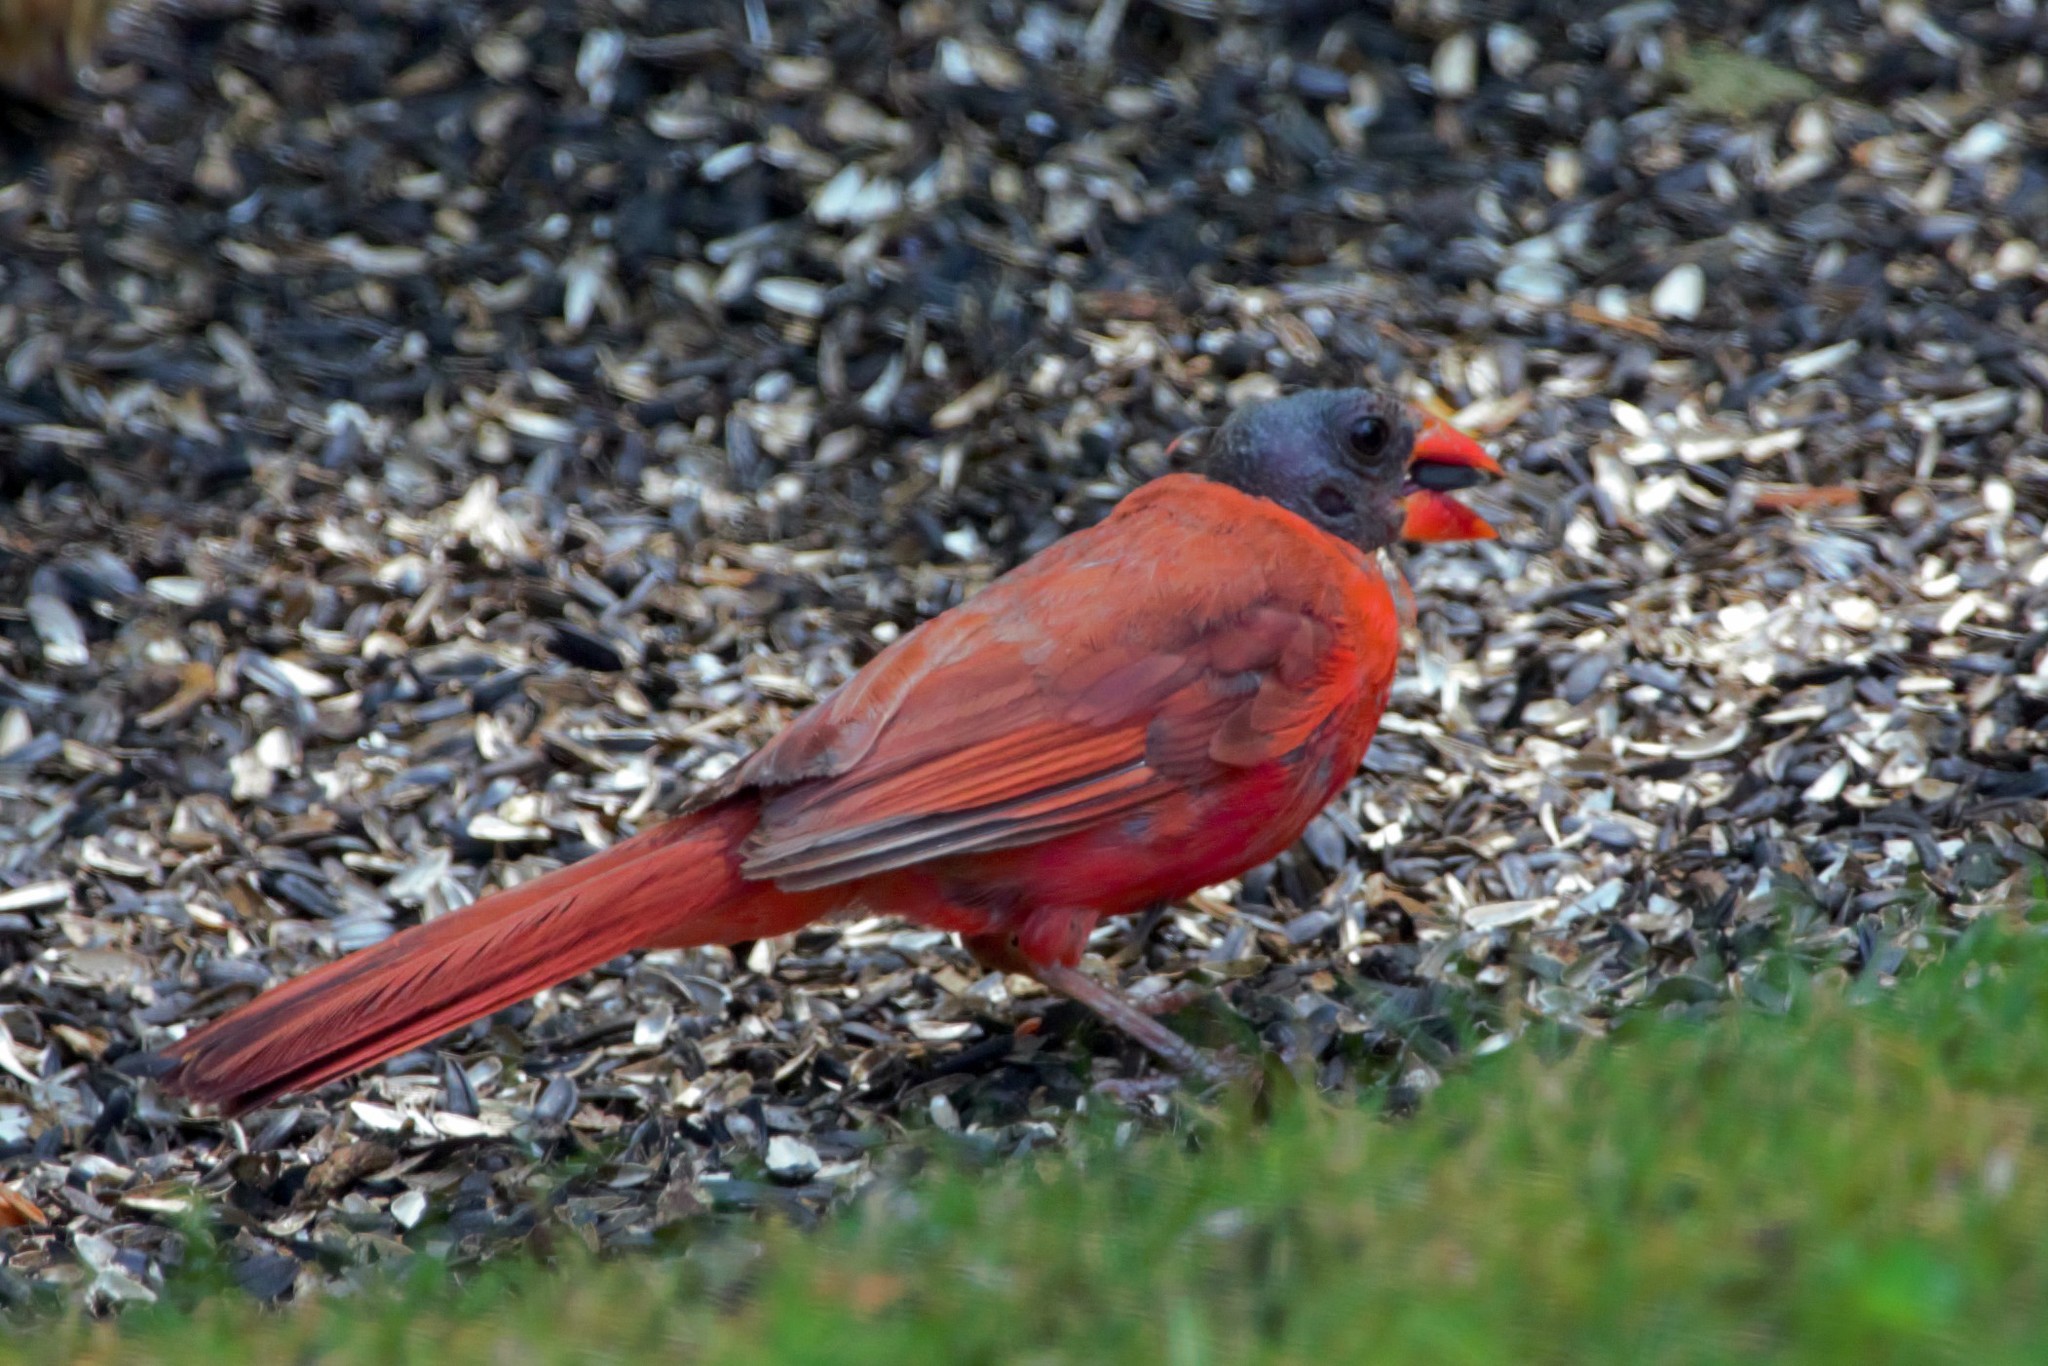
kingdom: Animalia
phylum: Chordata
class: Aves
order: Passeriformes
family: Cardinalidae
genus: Cardinalis
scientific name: Cardinalis cardinalis
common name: Northern cardinal
